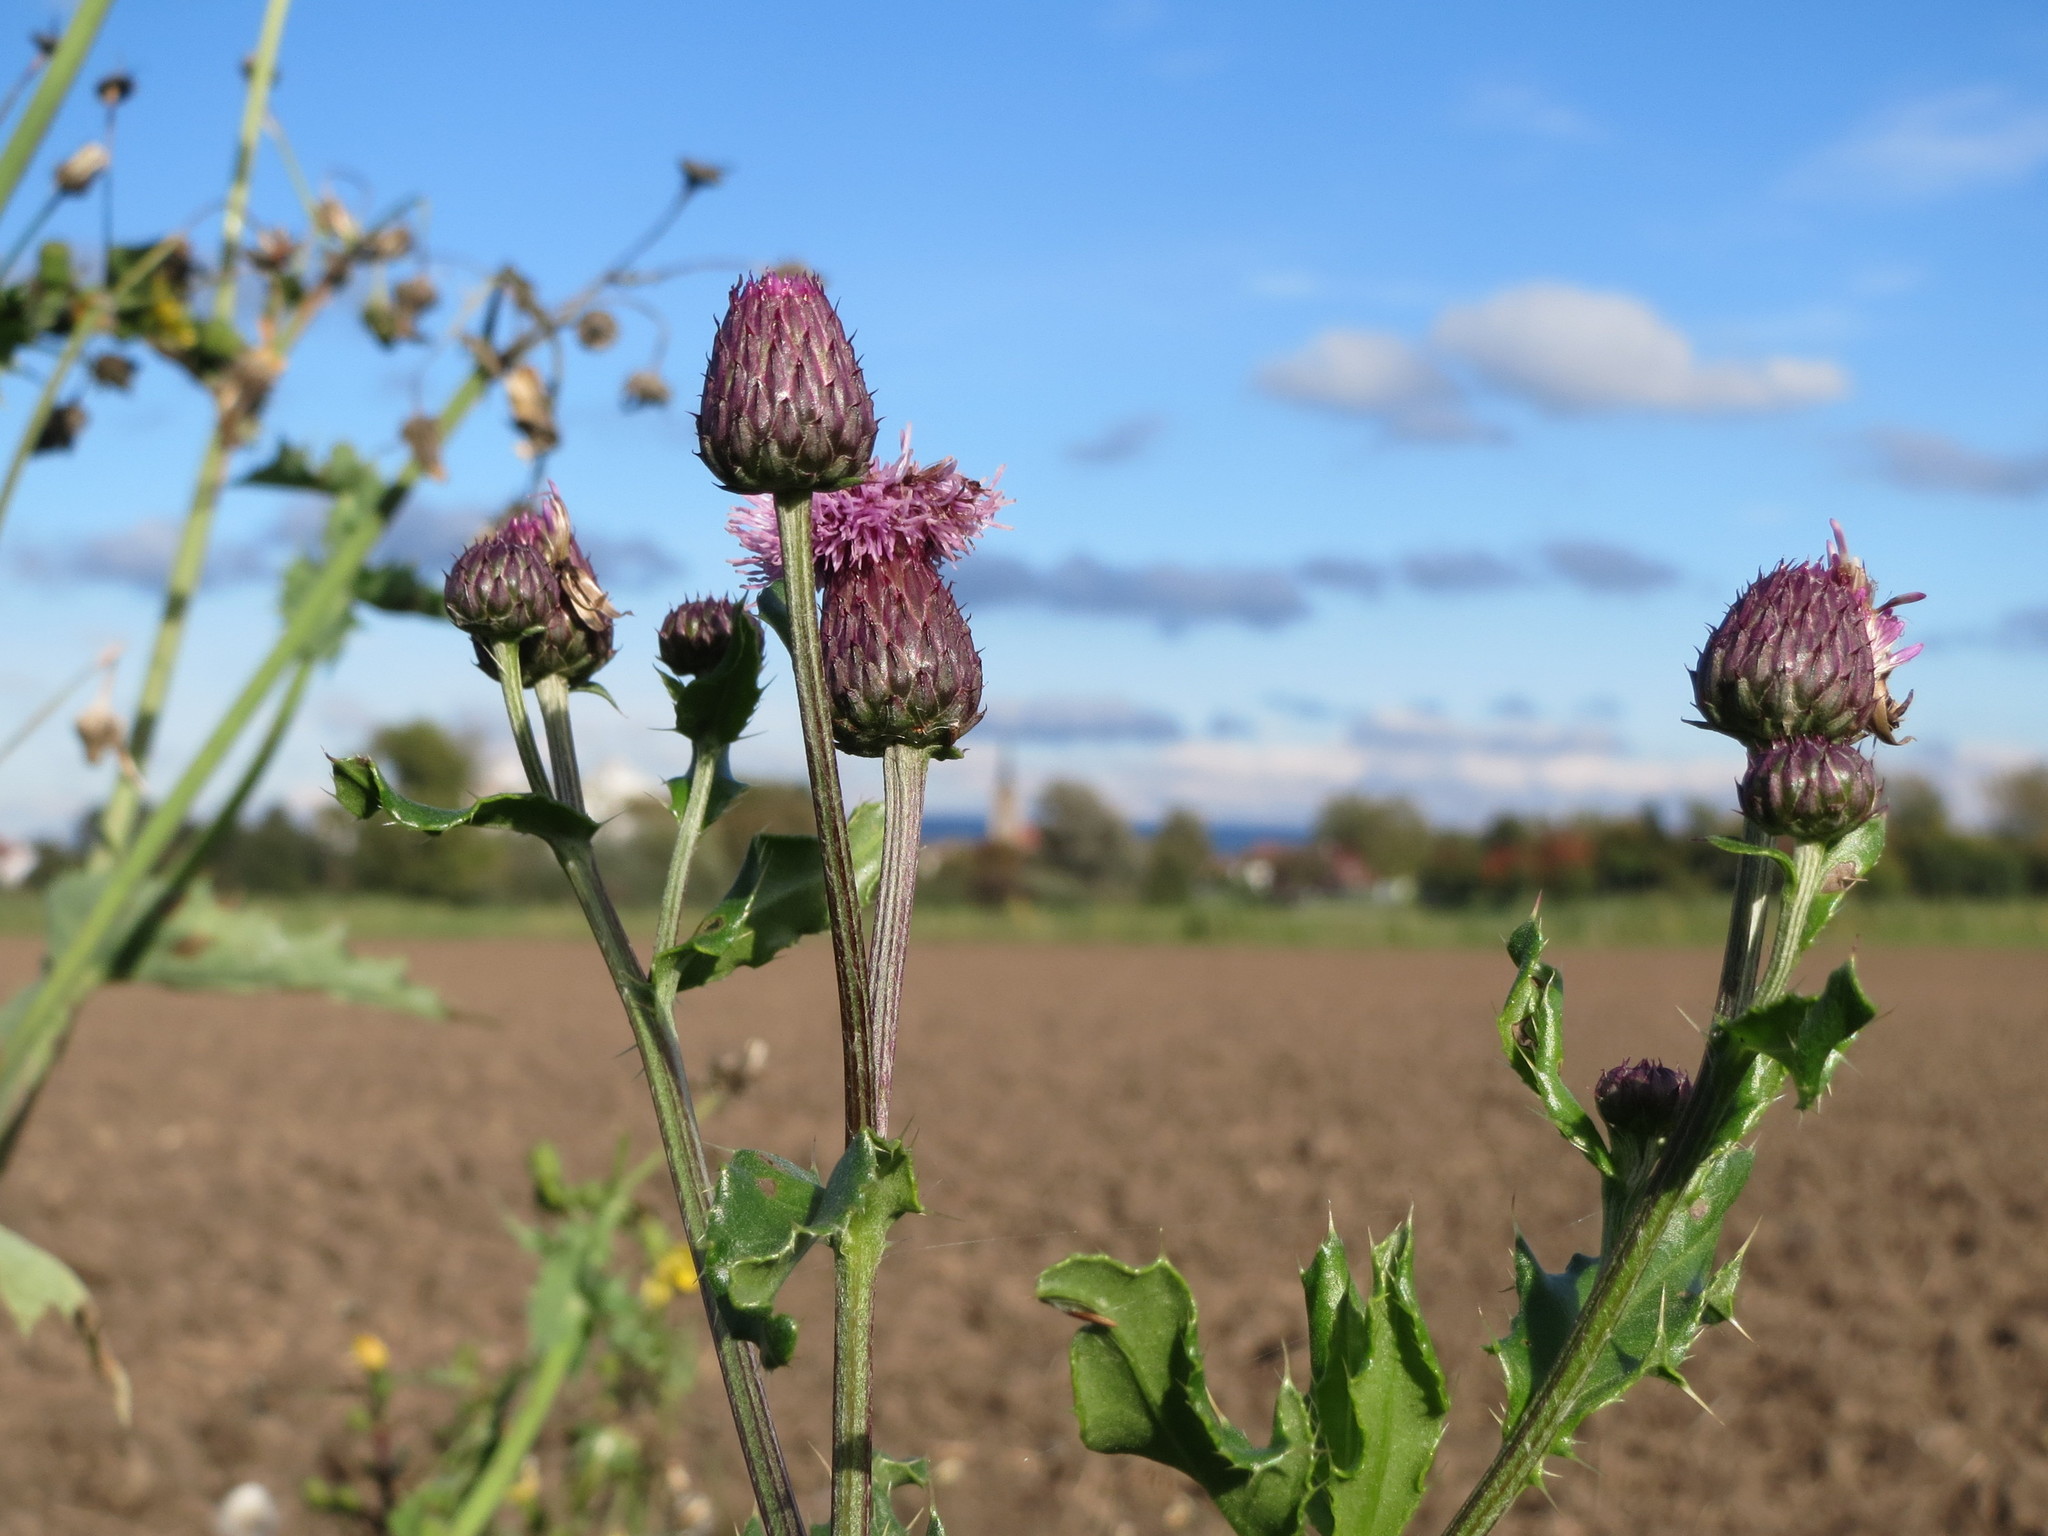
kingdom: Plantae
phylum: Tracheophyta
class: Magnoliopsida
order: Asterales
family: Asteraceae
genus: Cirsium
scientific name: Cirsium arvense
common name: Creeping thistle
